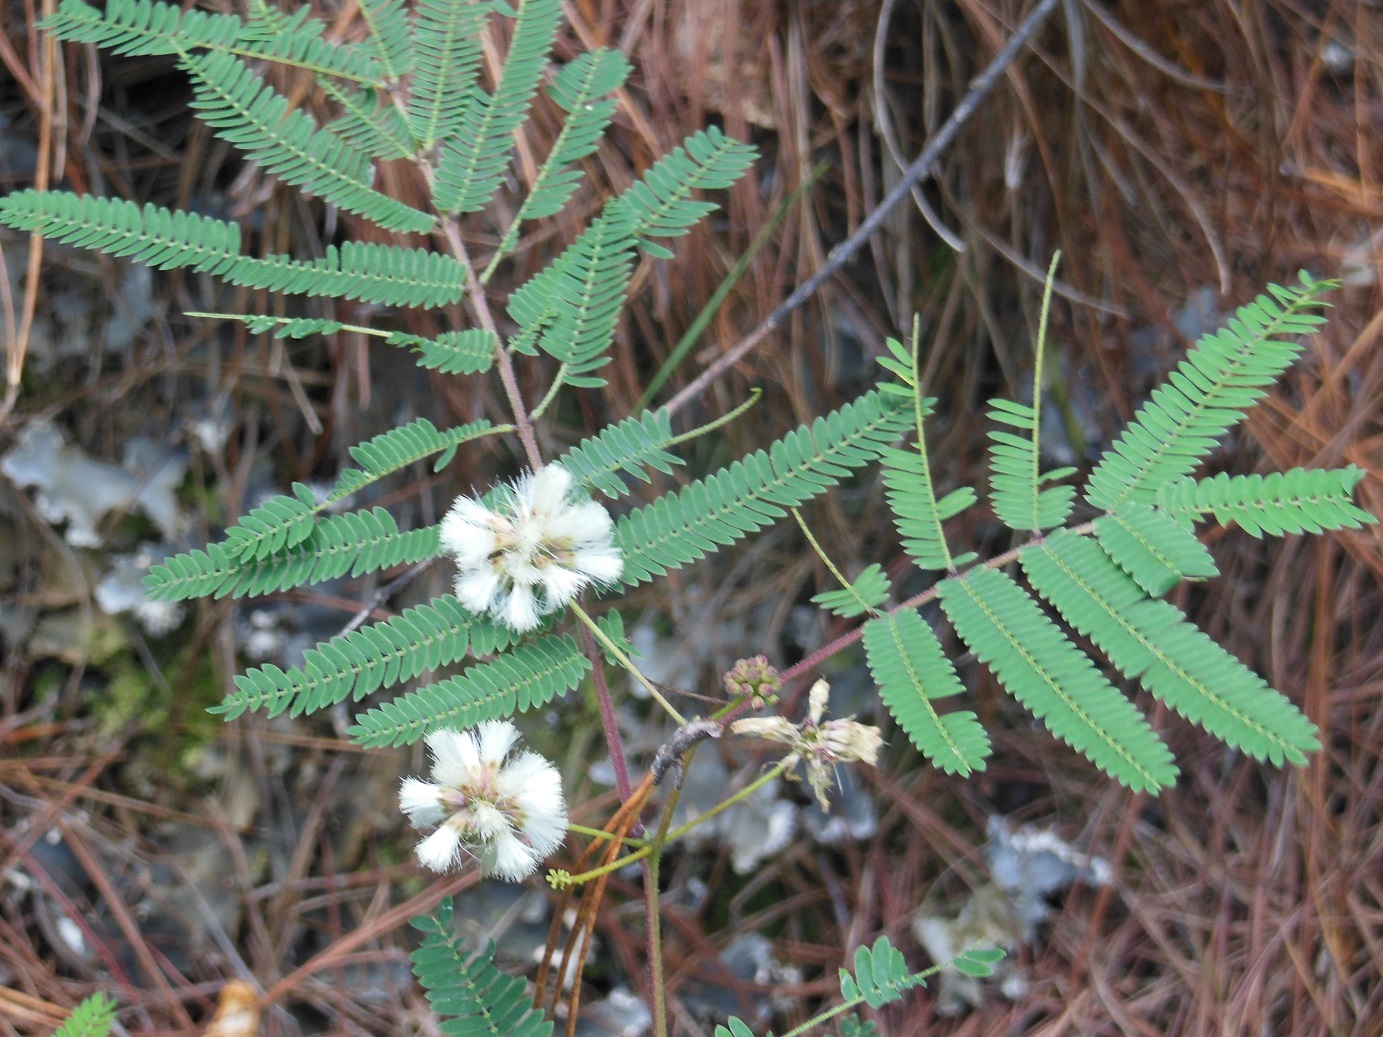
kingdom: Plantae
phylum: Tracheophyta
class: Magnoliopsida
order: Fabales
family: Fabaceae
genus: Acaciella
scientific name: Acaciella angustissima
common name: Prairie acacia
